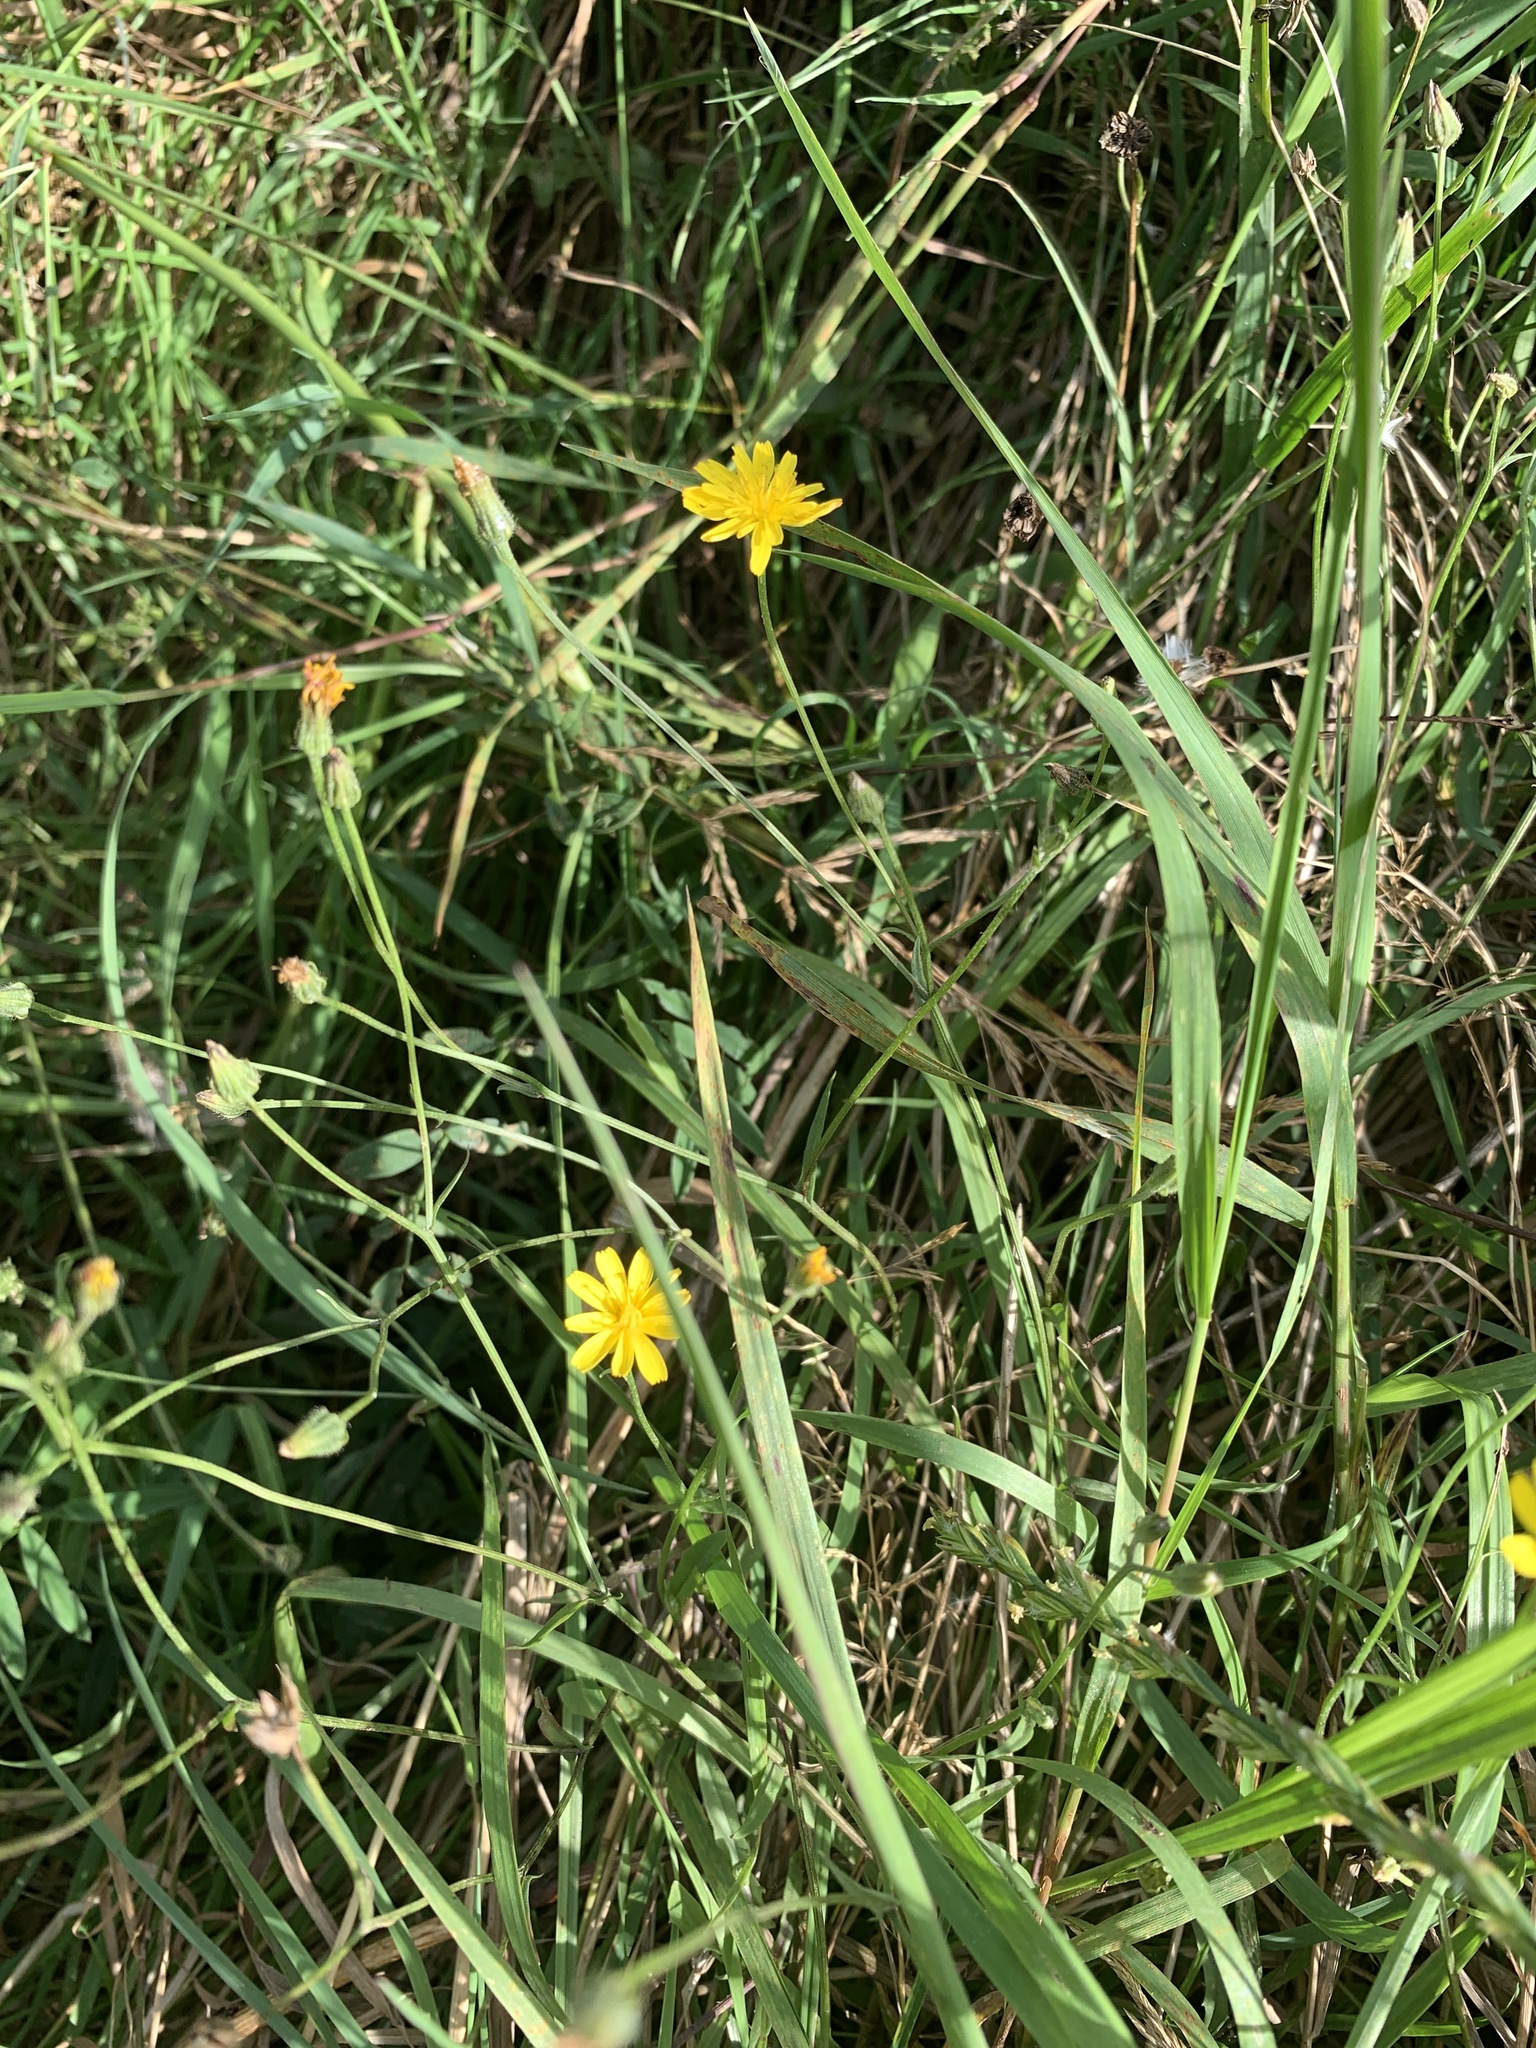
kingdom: Plantae
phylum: Tracheophyta
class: Magnoliopsida
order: Asterales
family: Asteraceae
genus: Crepis
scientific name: Crepis capillaris
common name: Smooth hawksbeard
